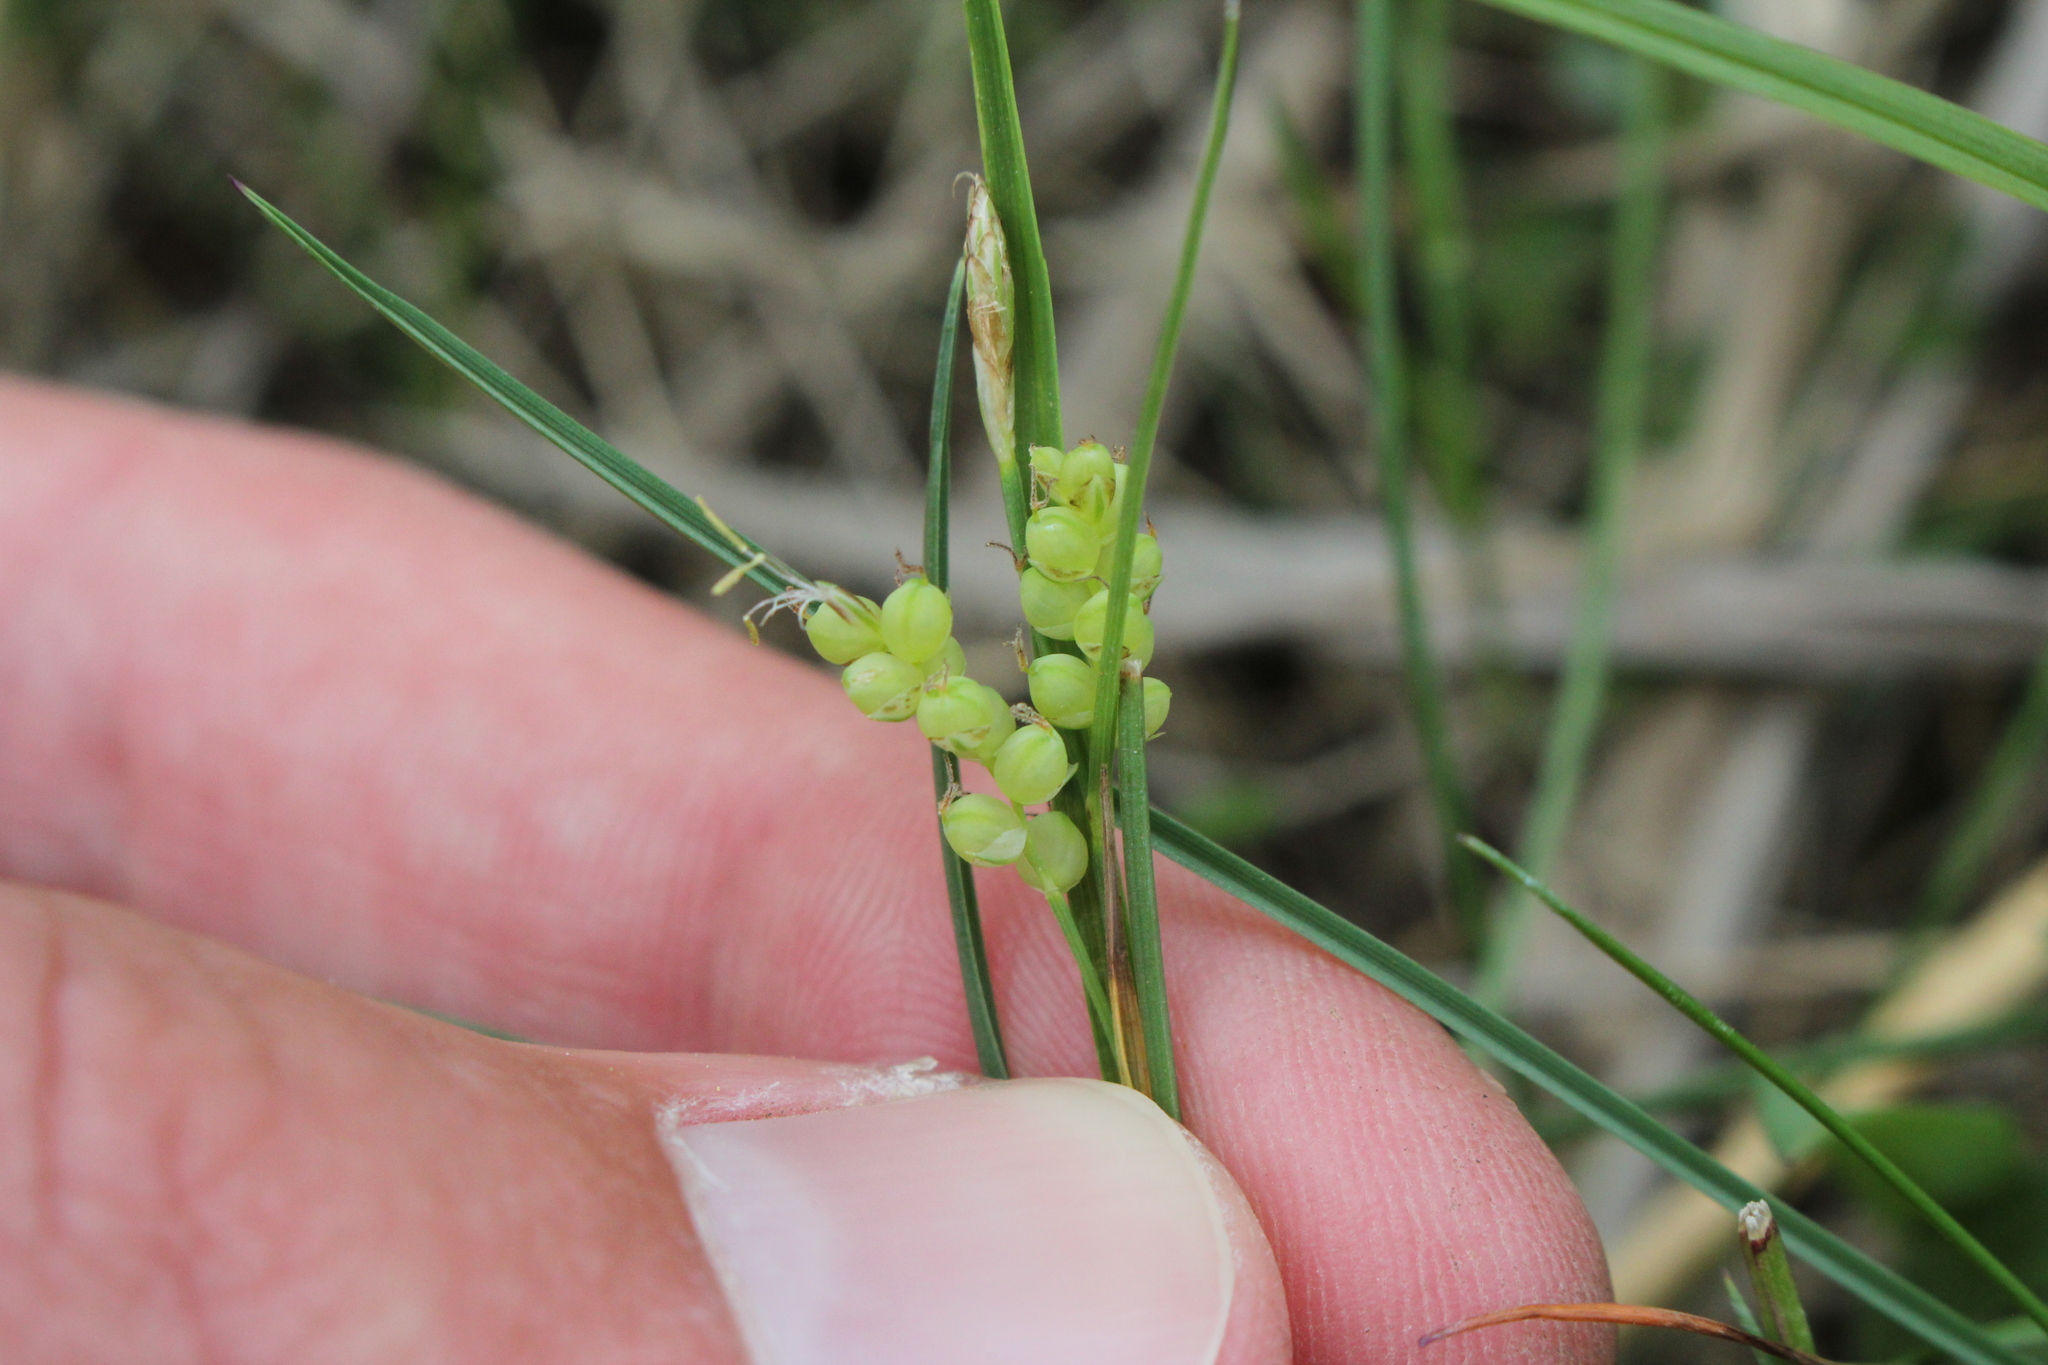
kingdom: Plantae
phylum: Tracheophyta
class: Liliopsida
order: Poales
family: Cyperaceae
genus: Carex
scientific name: Carex aurea
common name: Golden sedge
